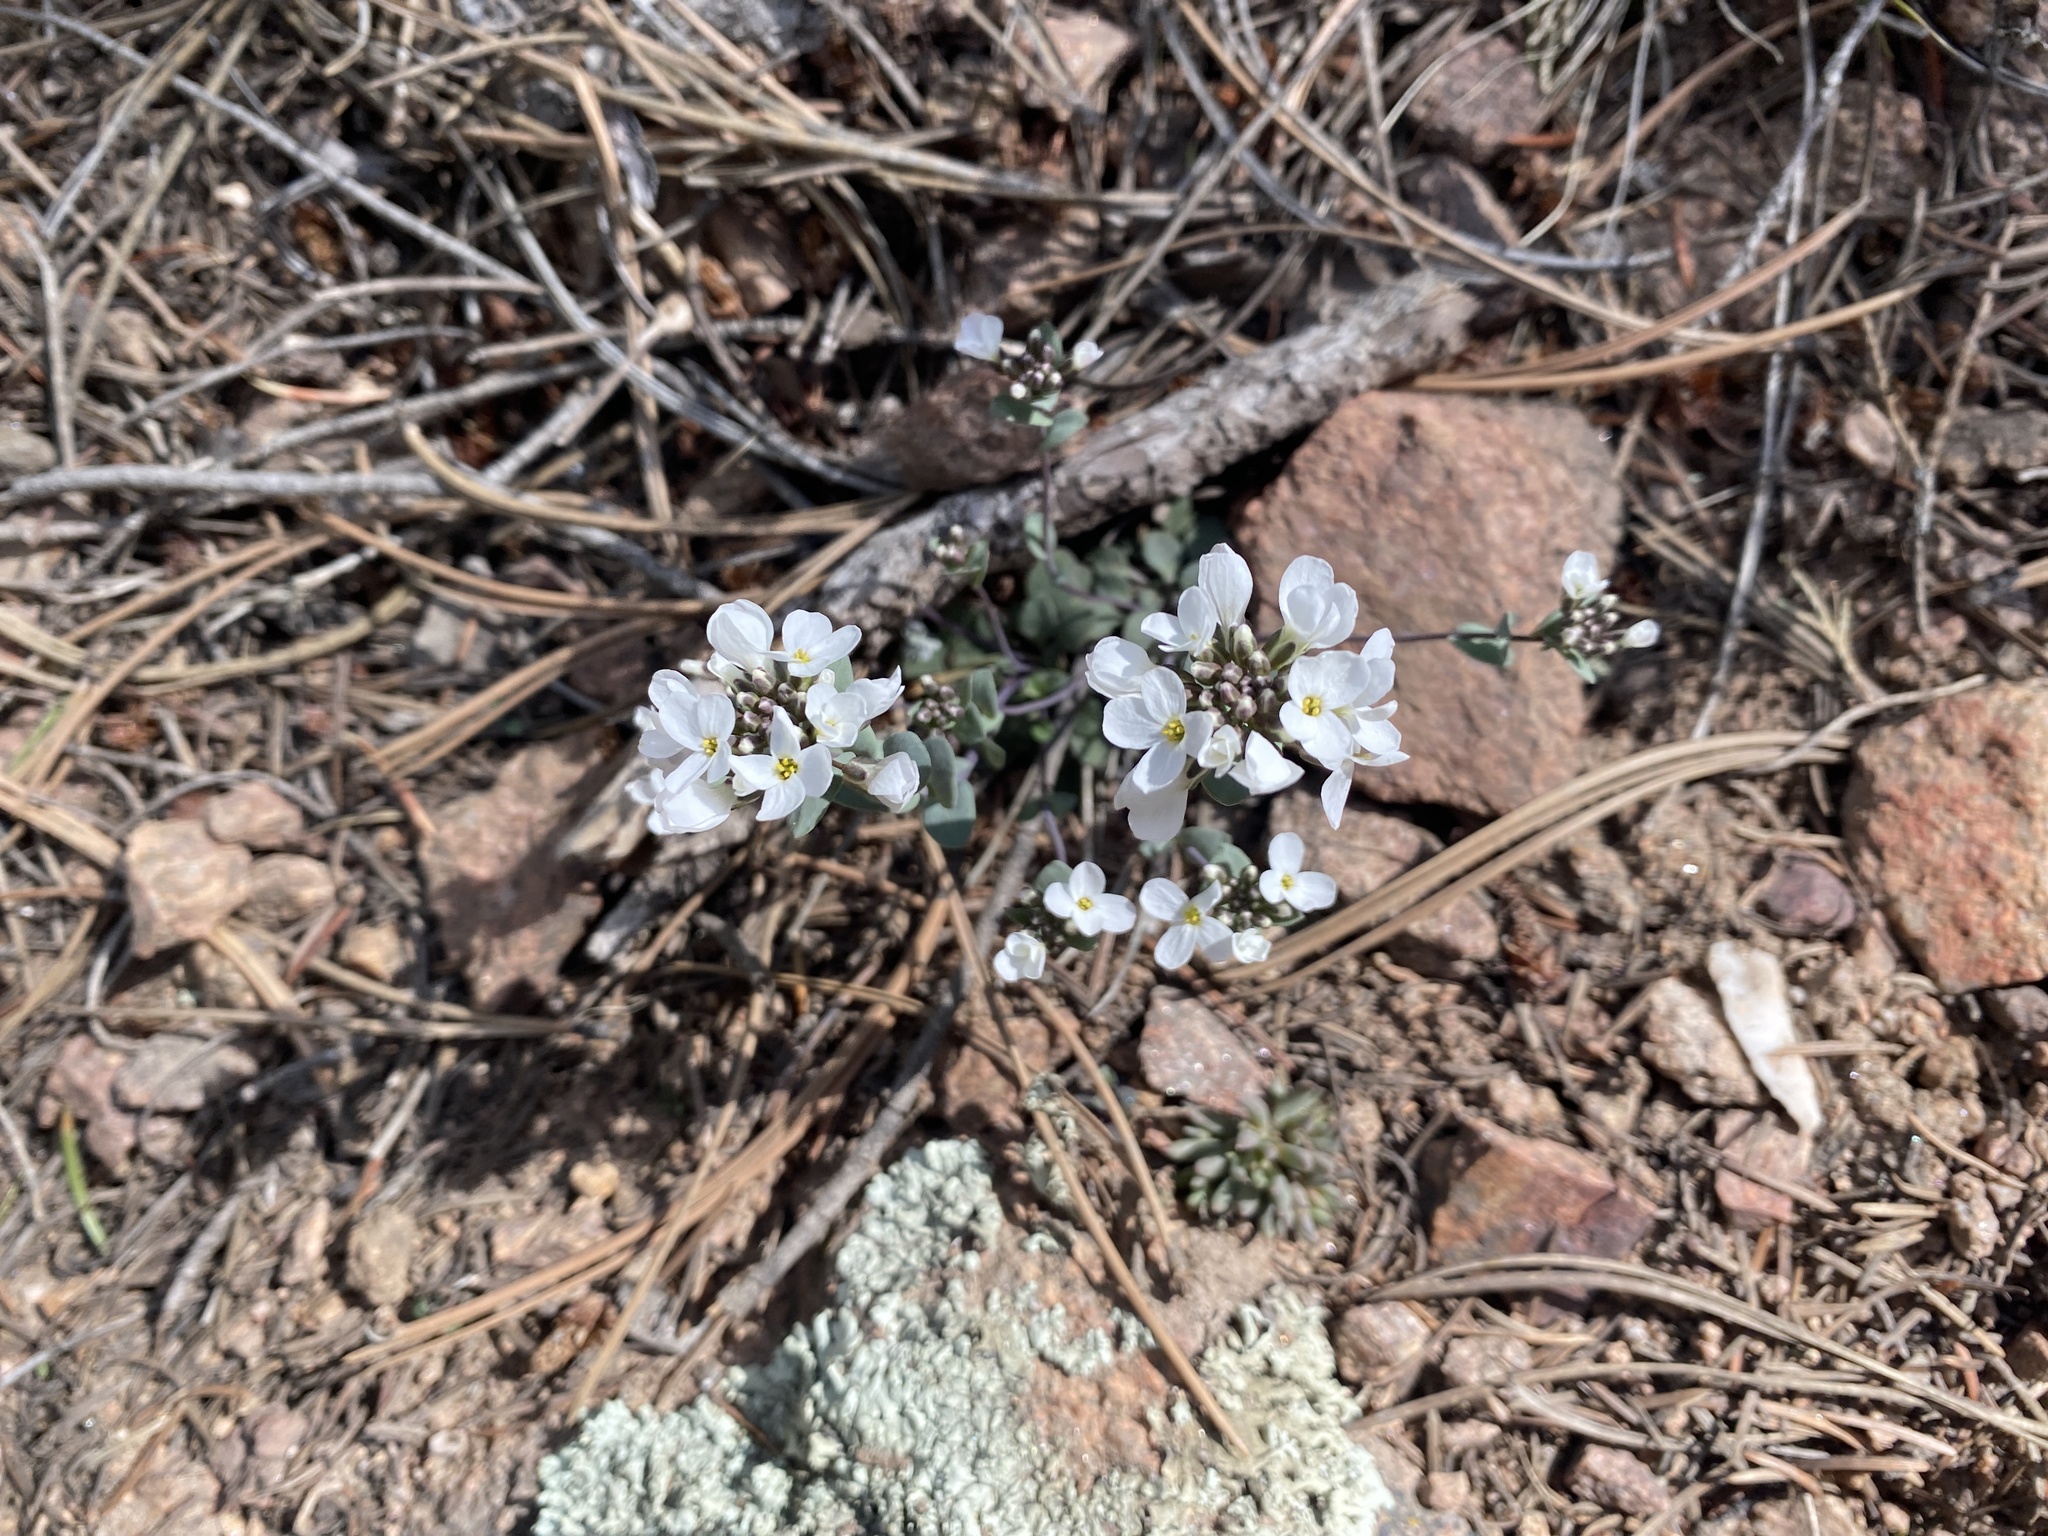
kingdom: Plantae
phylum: Tracheophyta
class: Magnoliopsida
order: Brassicales
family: Brassicaceae
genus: Noccaea
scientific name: Noccaea fendleri
